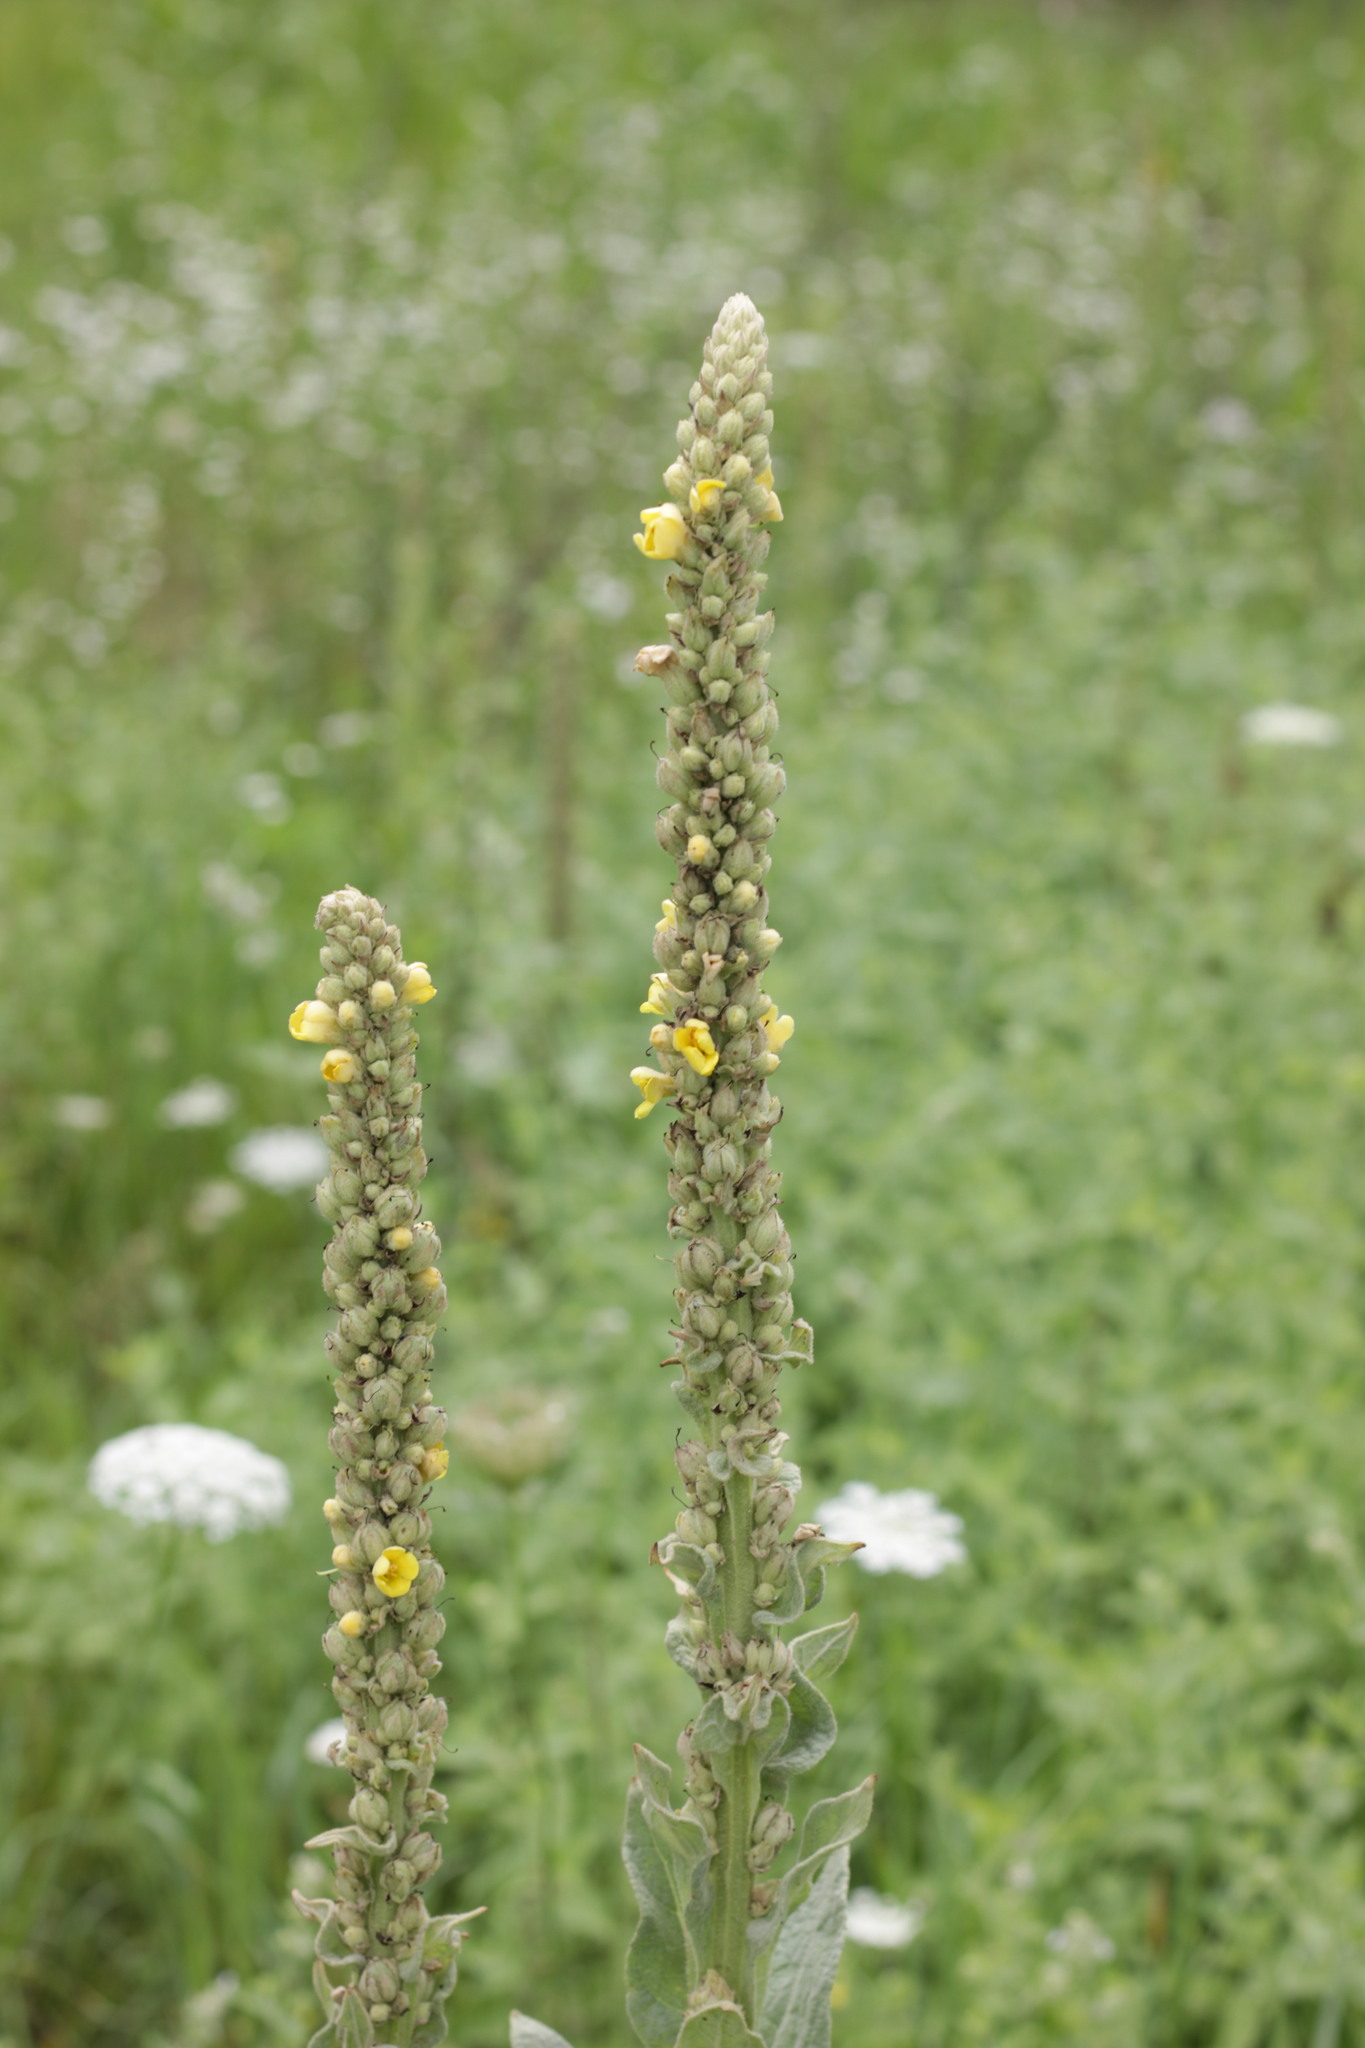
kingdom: Plantae
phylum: Tracheophyta
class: Magnoliopsida
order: Lamiales
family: Scrophulariaceae
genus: Verbascum
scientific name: Verbascum thapsus
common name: Common mullein
